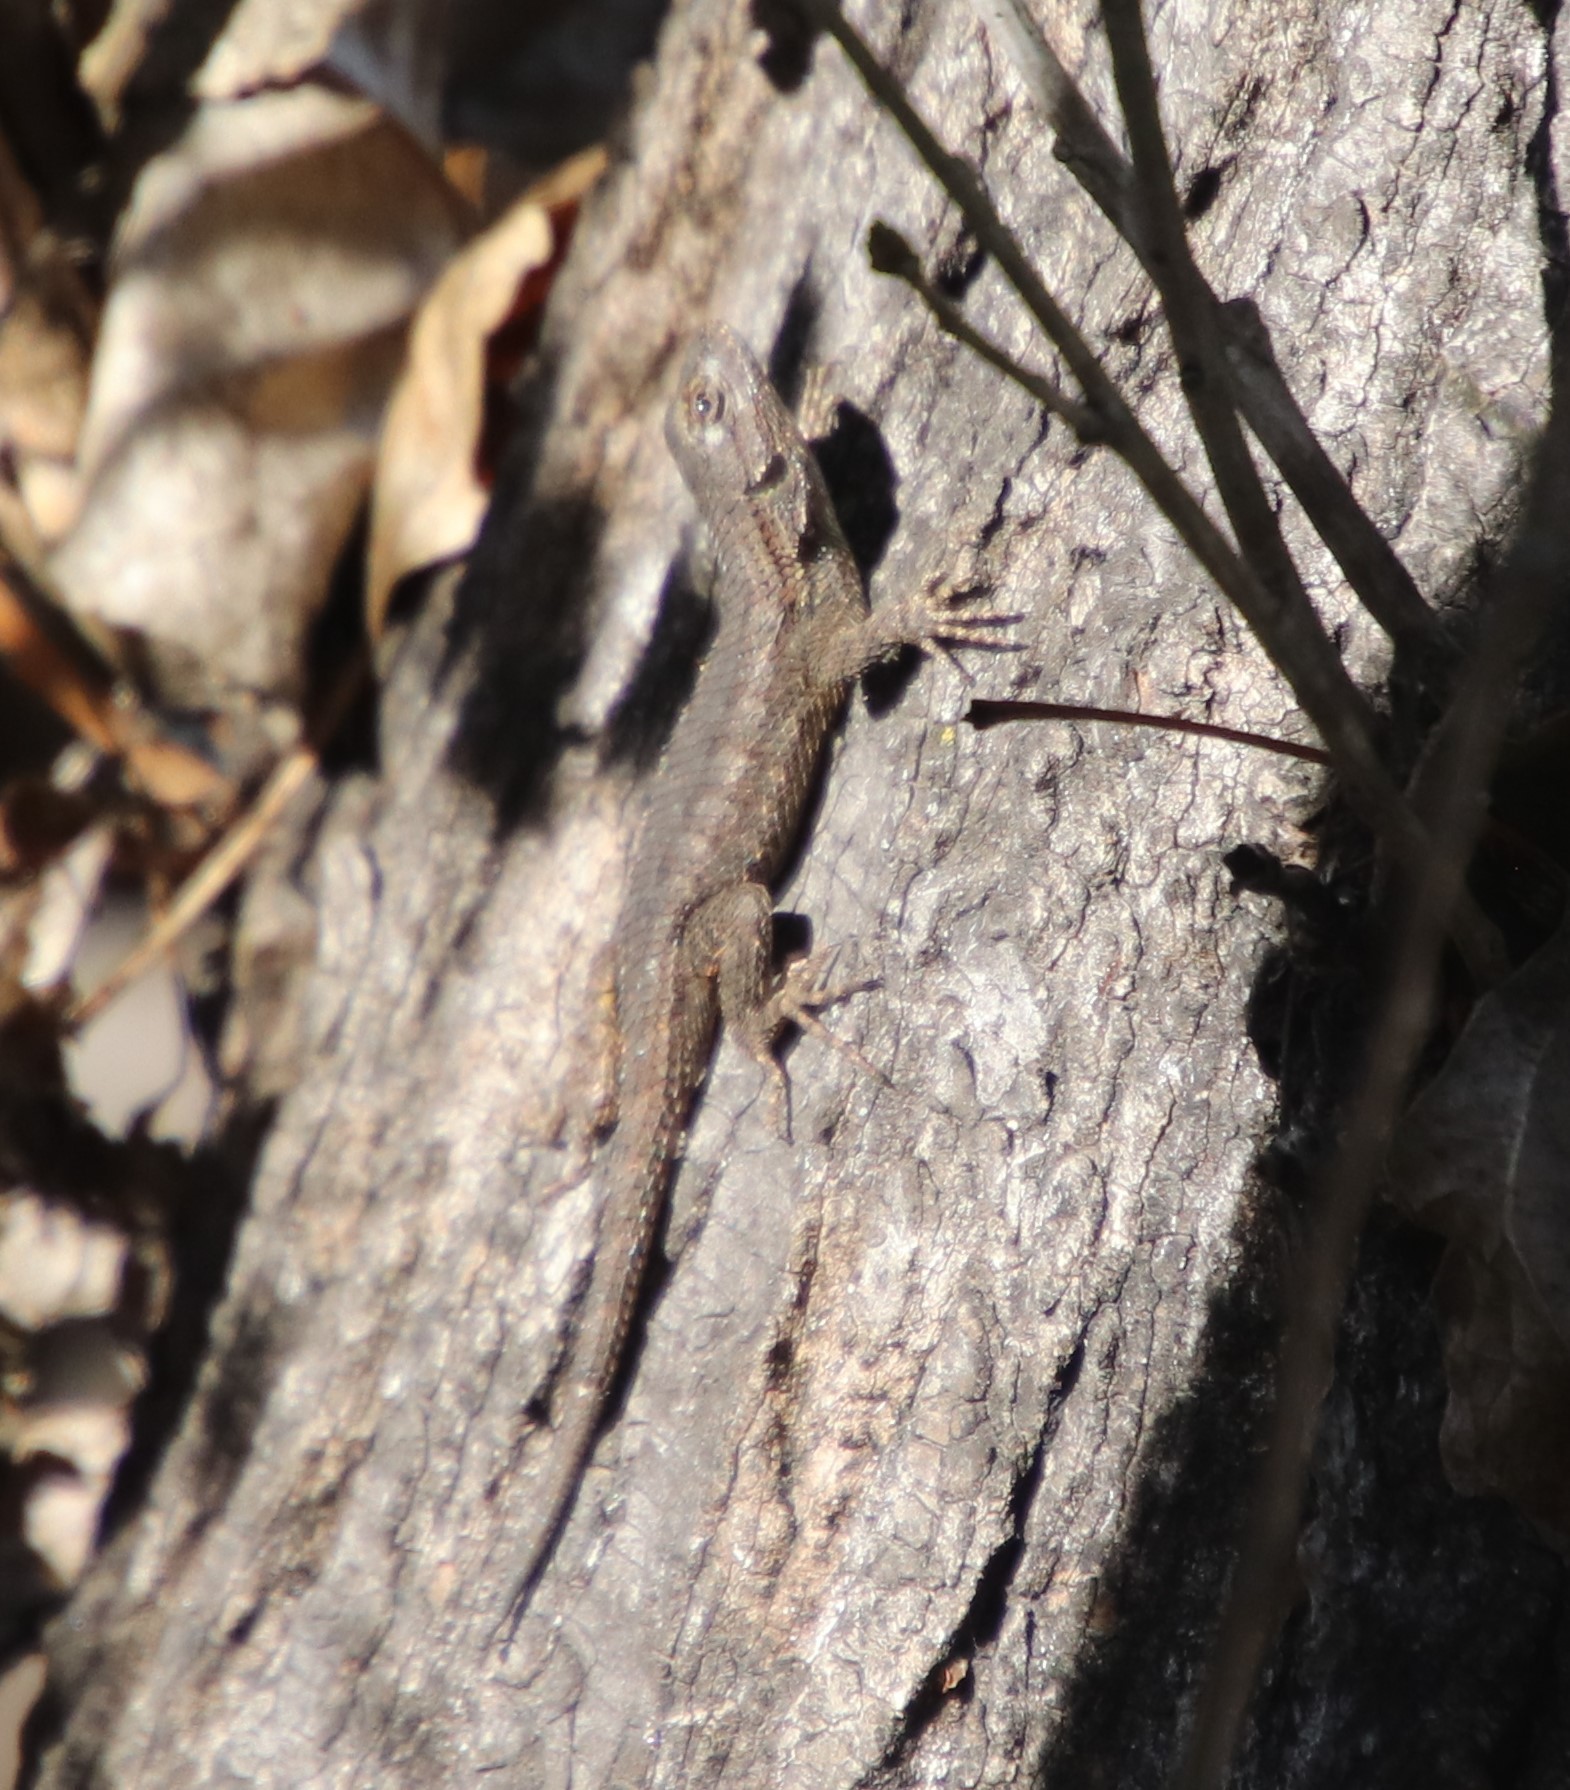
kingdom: Animalia
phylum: Chordata
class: Squamata
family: Phrynosomatidae
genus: Sceloporus
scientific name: Sceloporus occidentalis
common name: Western fence lizard
